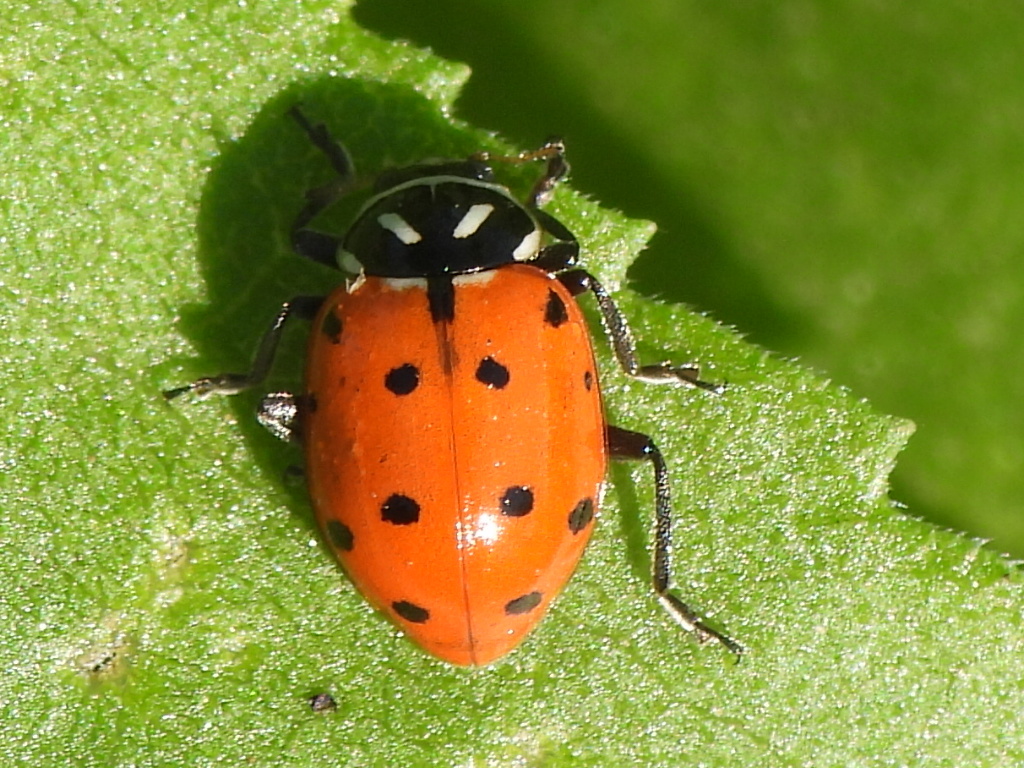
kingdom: Animalia
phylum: Arthropoda
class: Insecta
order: Coleoptera
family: Coccinellidae
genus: Hippodamia
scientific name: Hippodamia convergens
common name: Convergent lady beetle
